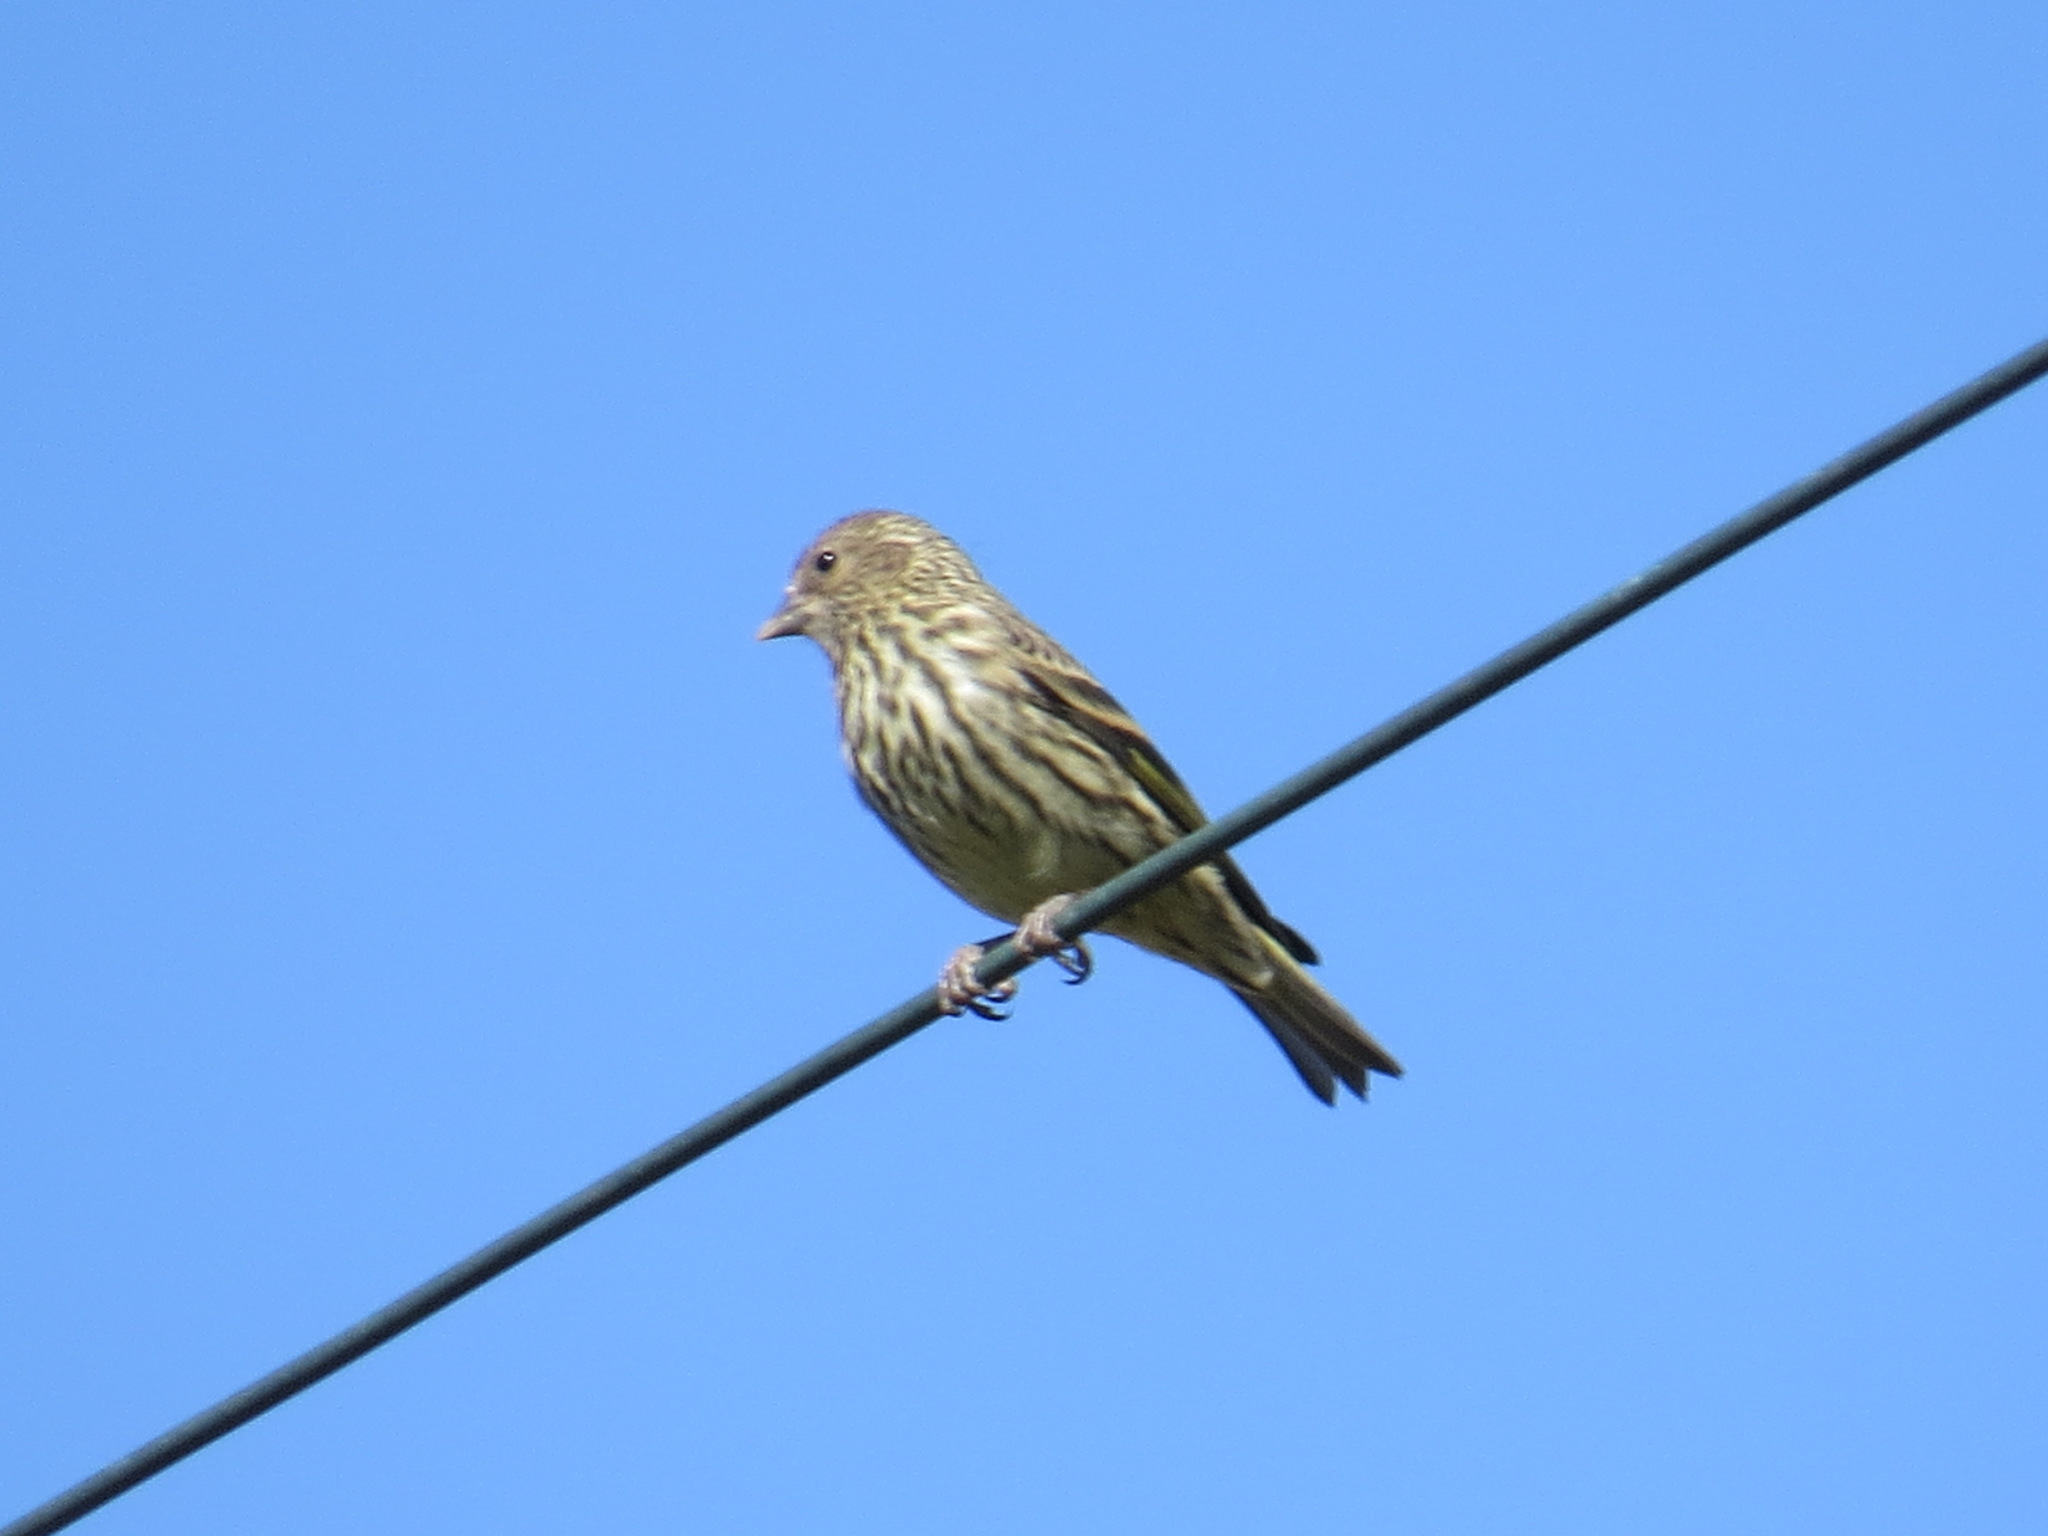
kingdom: Animalia
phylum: Chordata
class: Aves
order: Passeriformes
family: Fringillidae
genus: Spinus
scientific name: Spinus pinus
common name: Pine siskin
